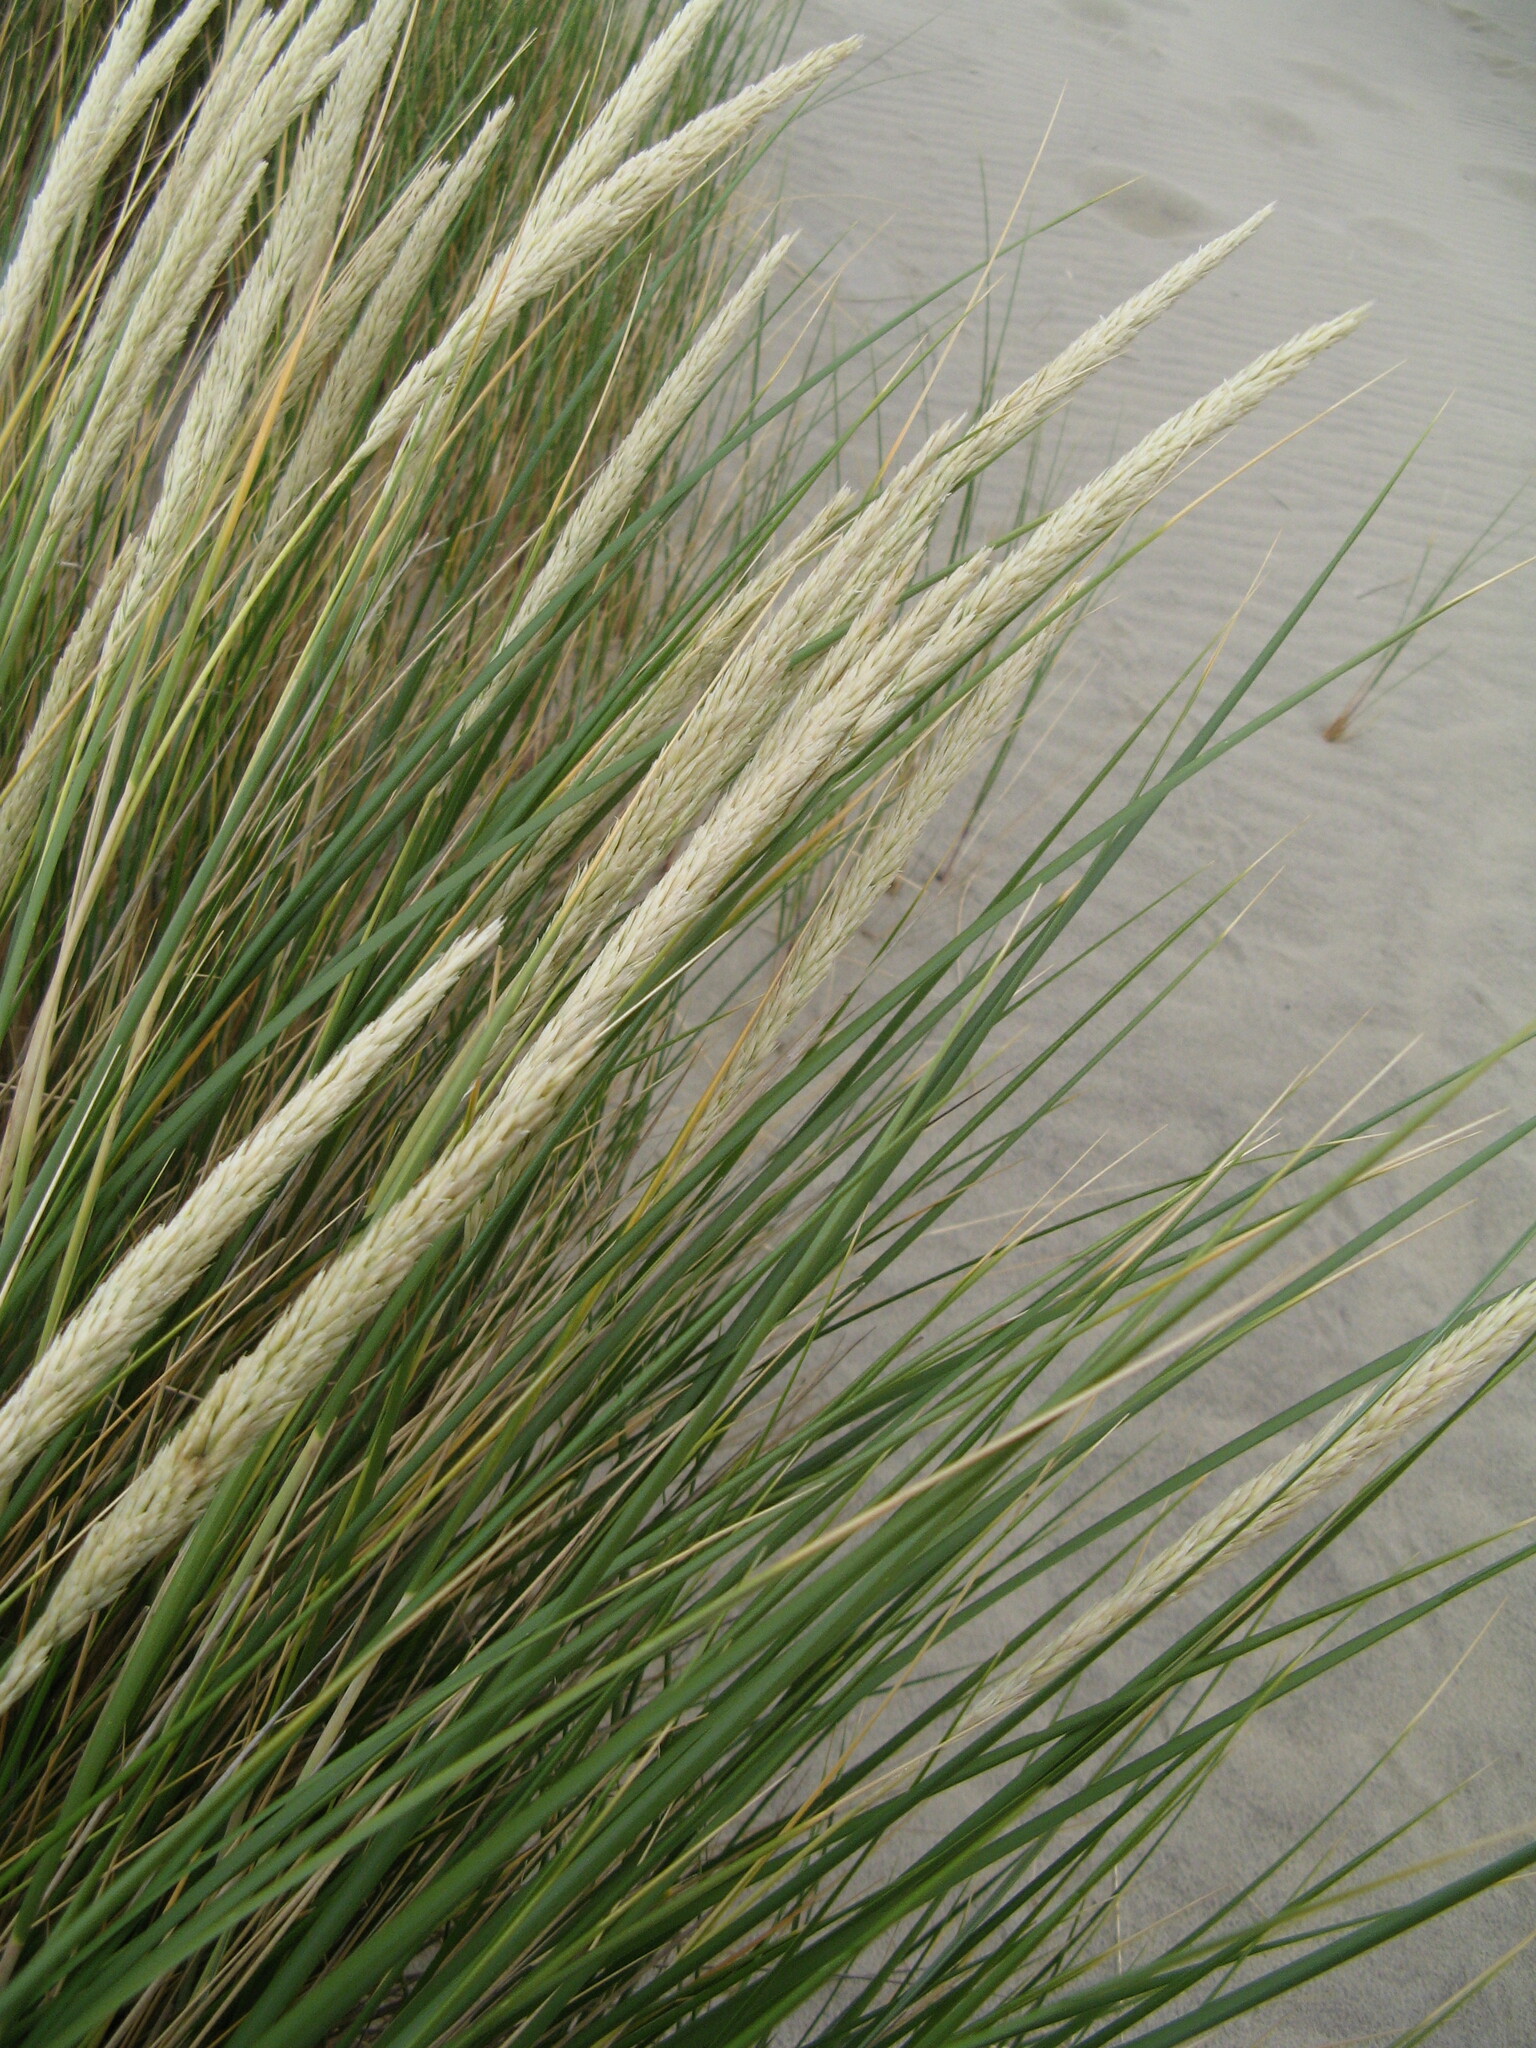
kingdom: Plantae
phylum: Tracheophyta
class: Liliopsida
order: Poales
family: Poaceae
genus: Calamagrostis
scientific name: Calamagrostis arenaria
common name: European beachgrass
